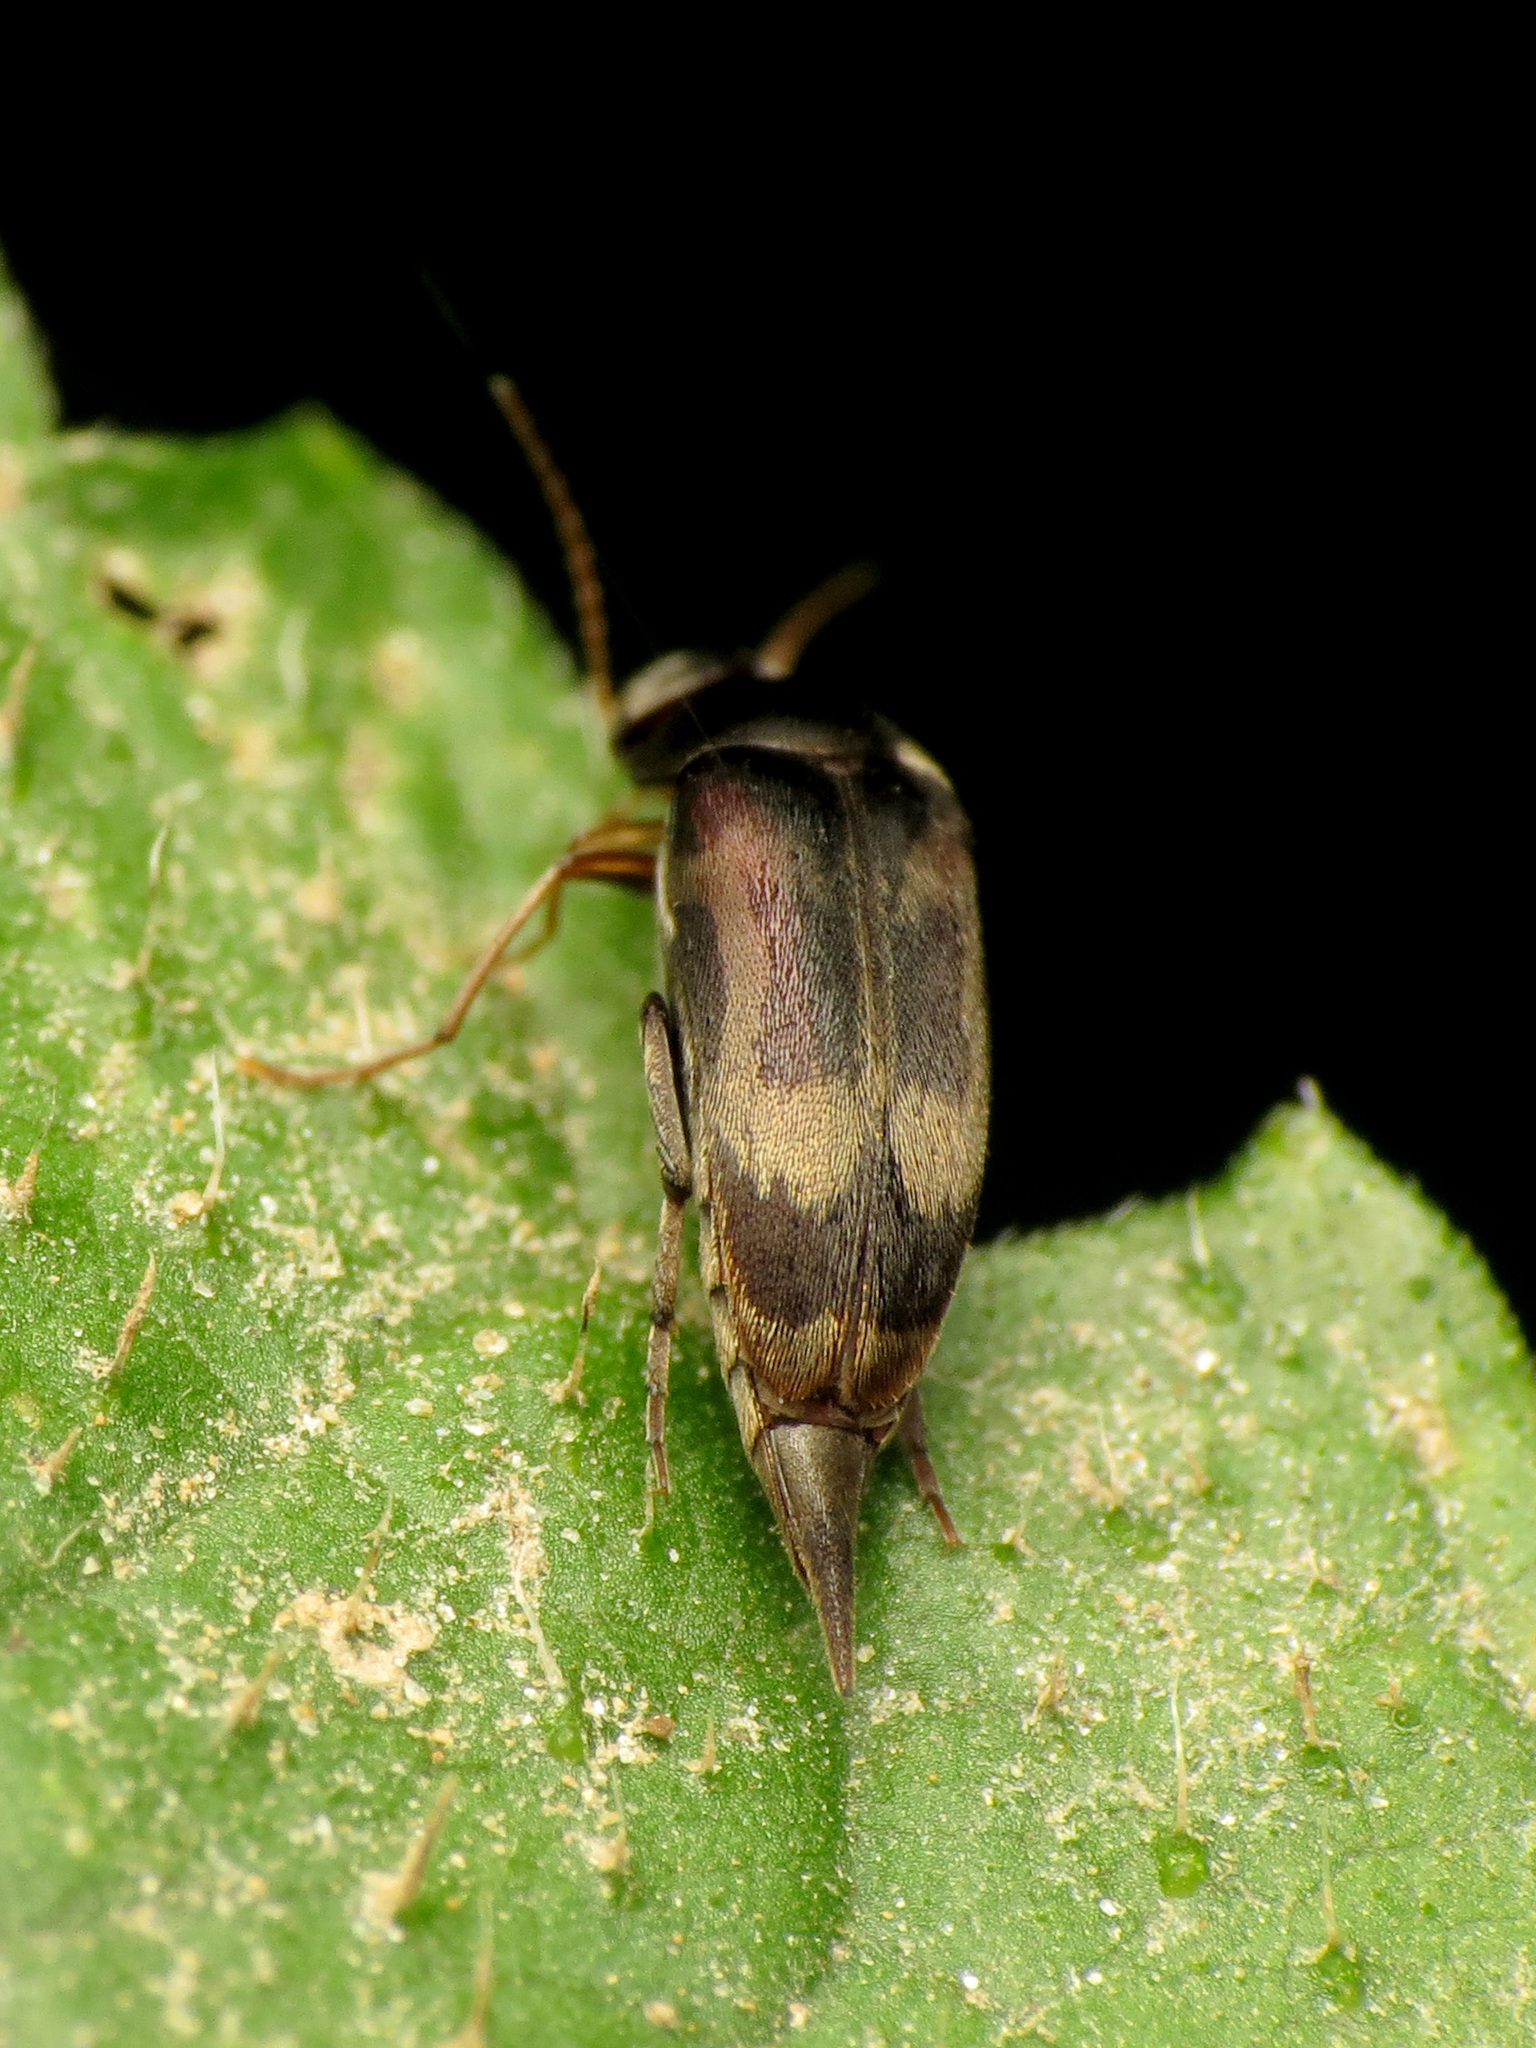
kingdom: Animalia
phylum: Arthropoda
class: Insecta
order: Coleoptera
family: Mordellidae
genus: Falsomordellistena
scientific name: Falsomordellistena hebraica
